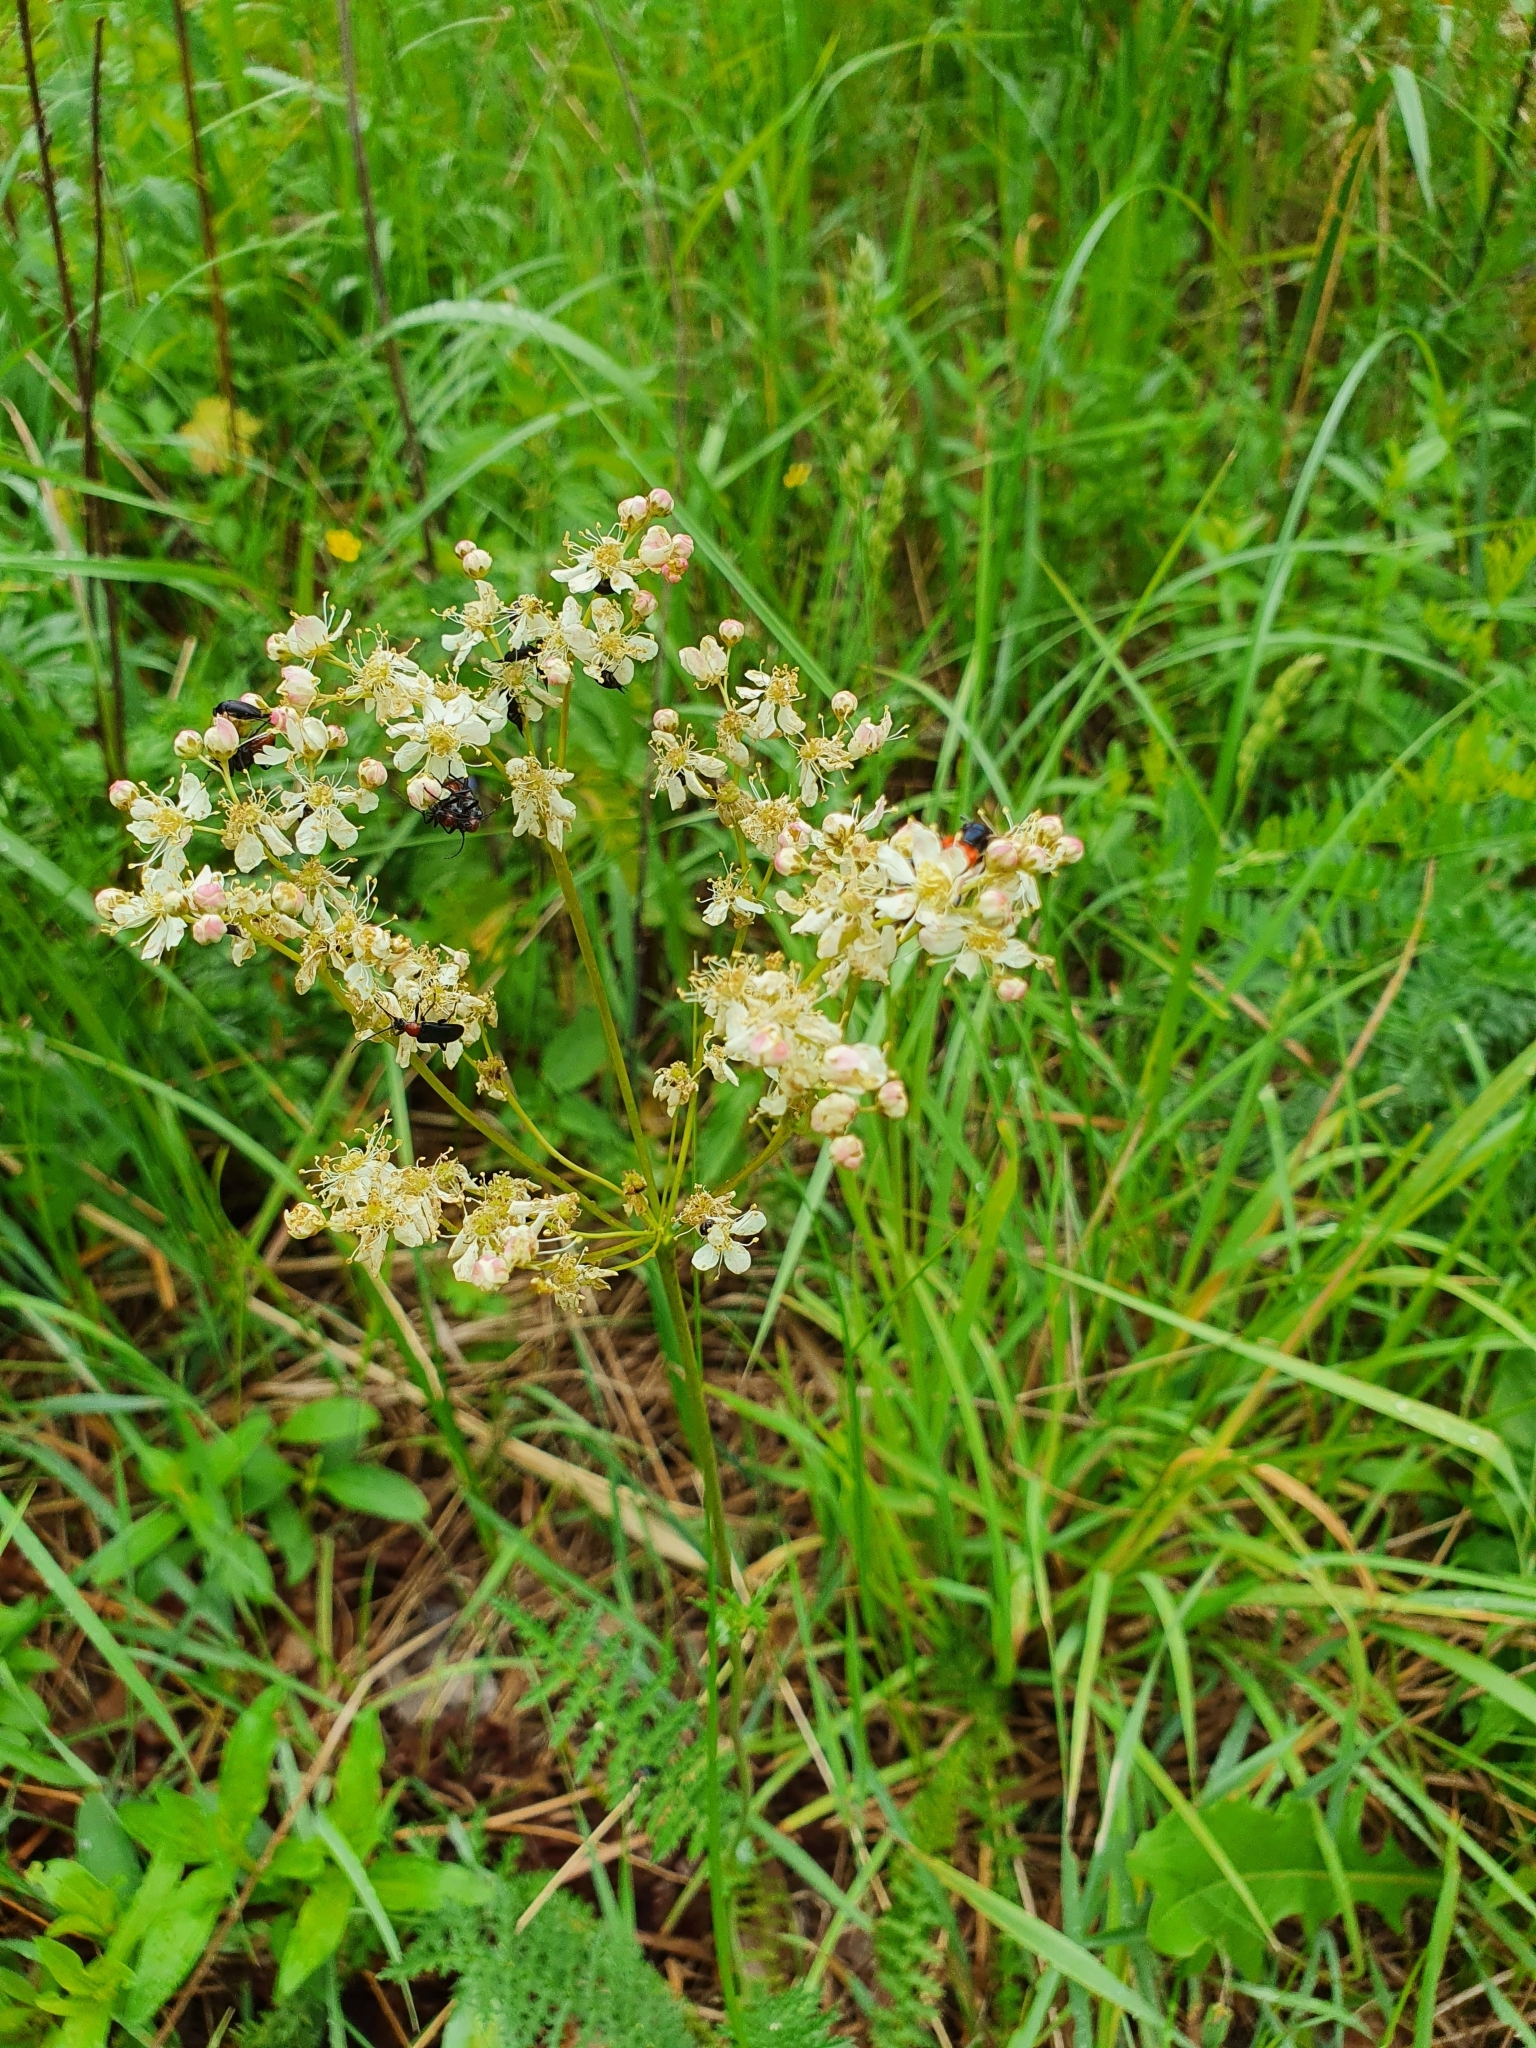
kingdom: Plantae
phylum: Tracheophyta
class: Magnoliopsida
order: Rosales
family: Rosaceae
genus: Filipendula
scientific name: Filipendula vulgaris
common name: Dropwort
